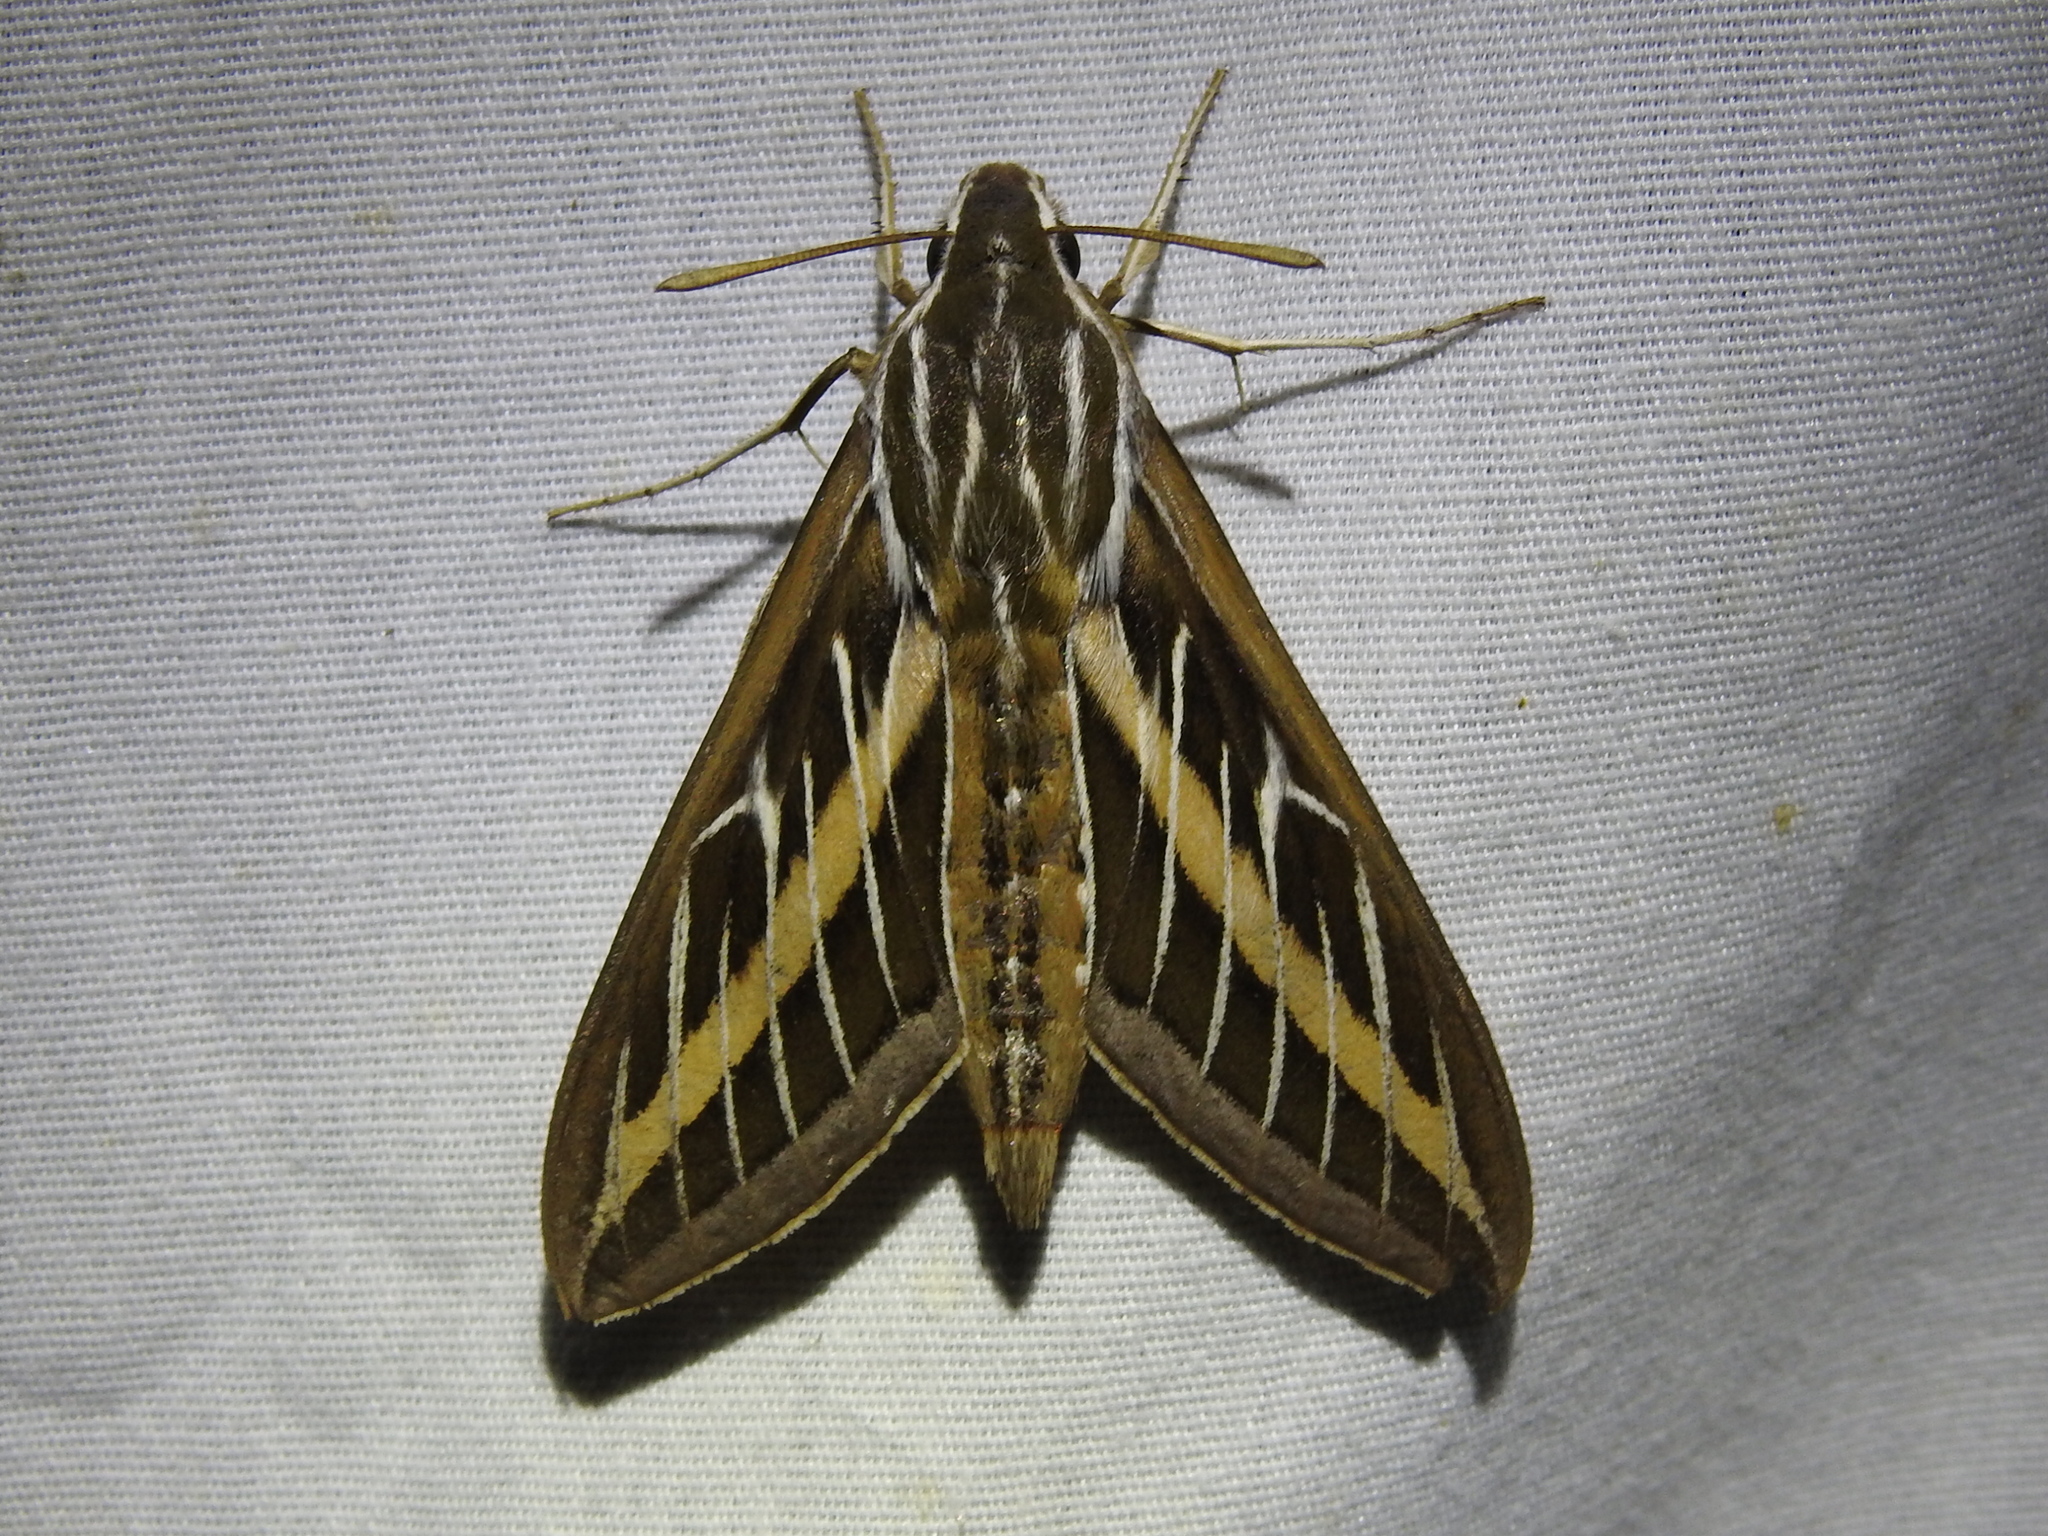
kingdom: Animalia
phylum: Arthropoda
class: Insecta
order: Lepidoptera
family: Sphingidae
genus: Hyles
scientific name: Hyles lineata
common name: White-lined sphinx
